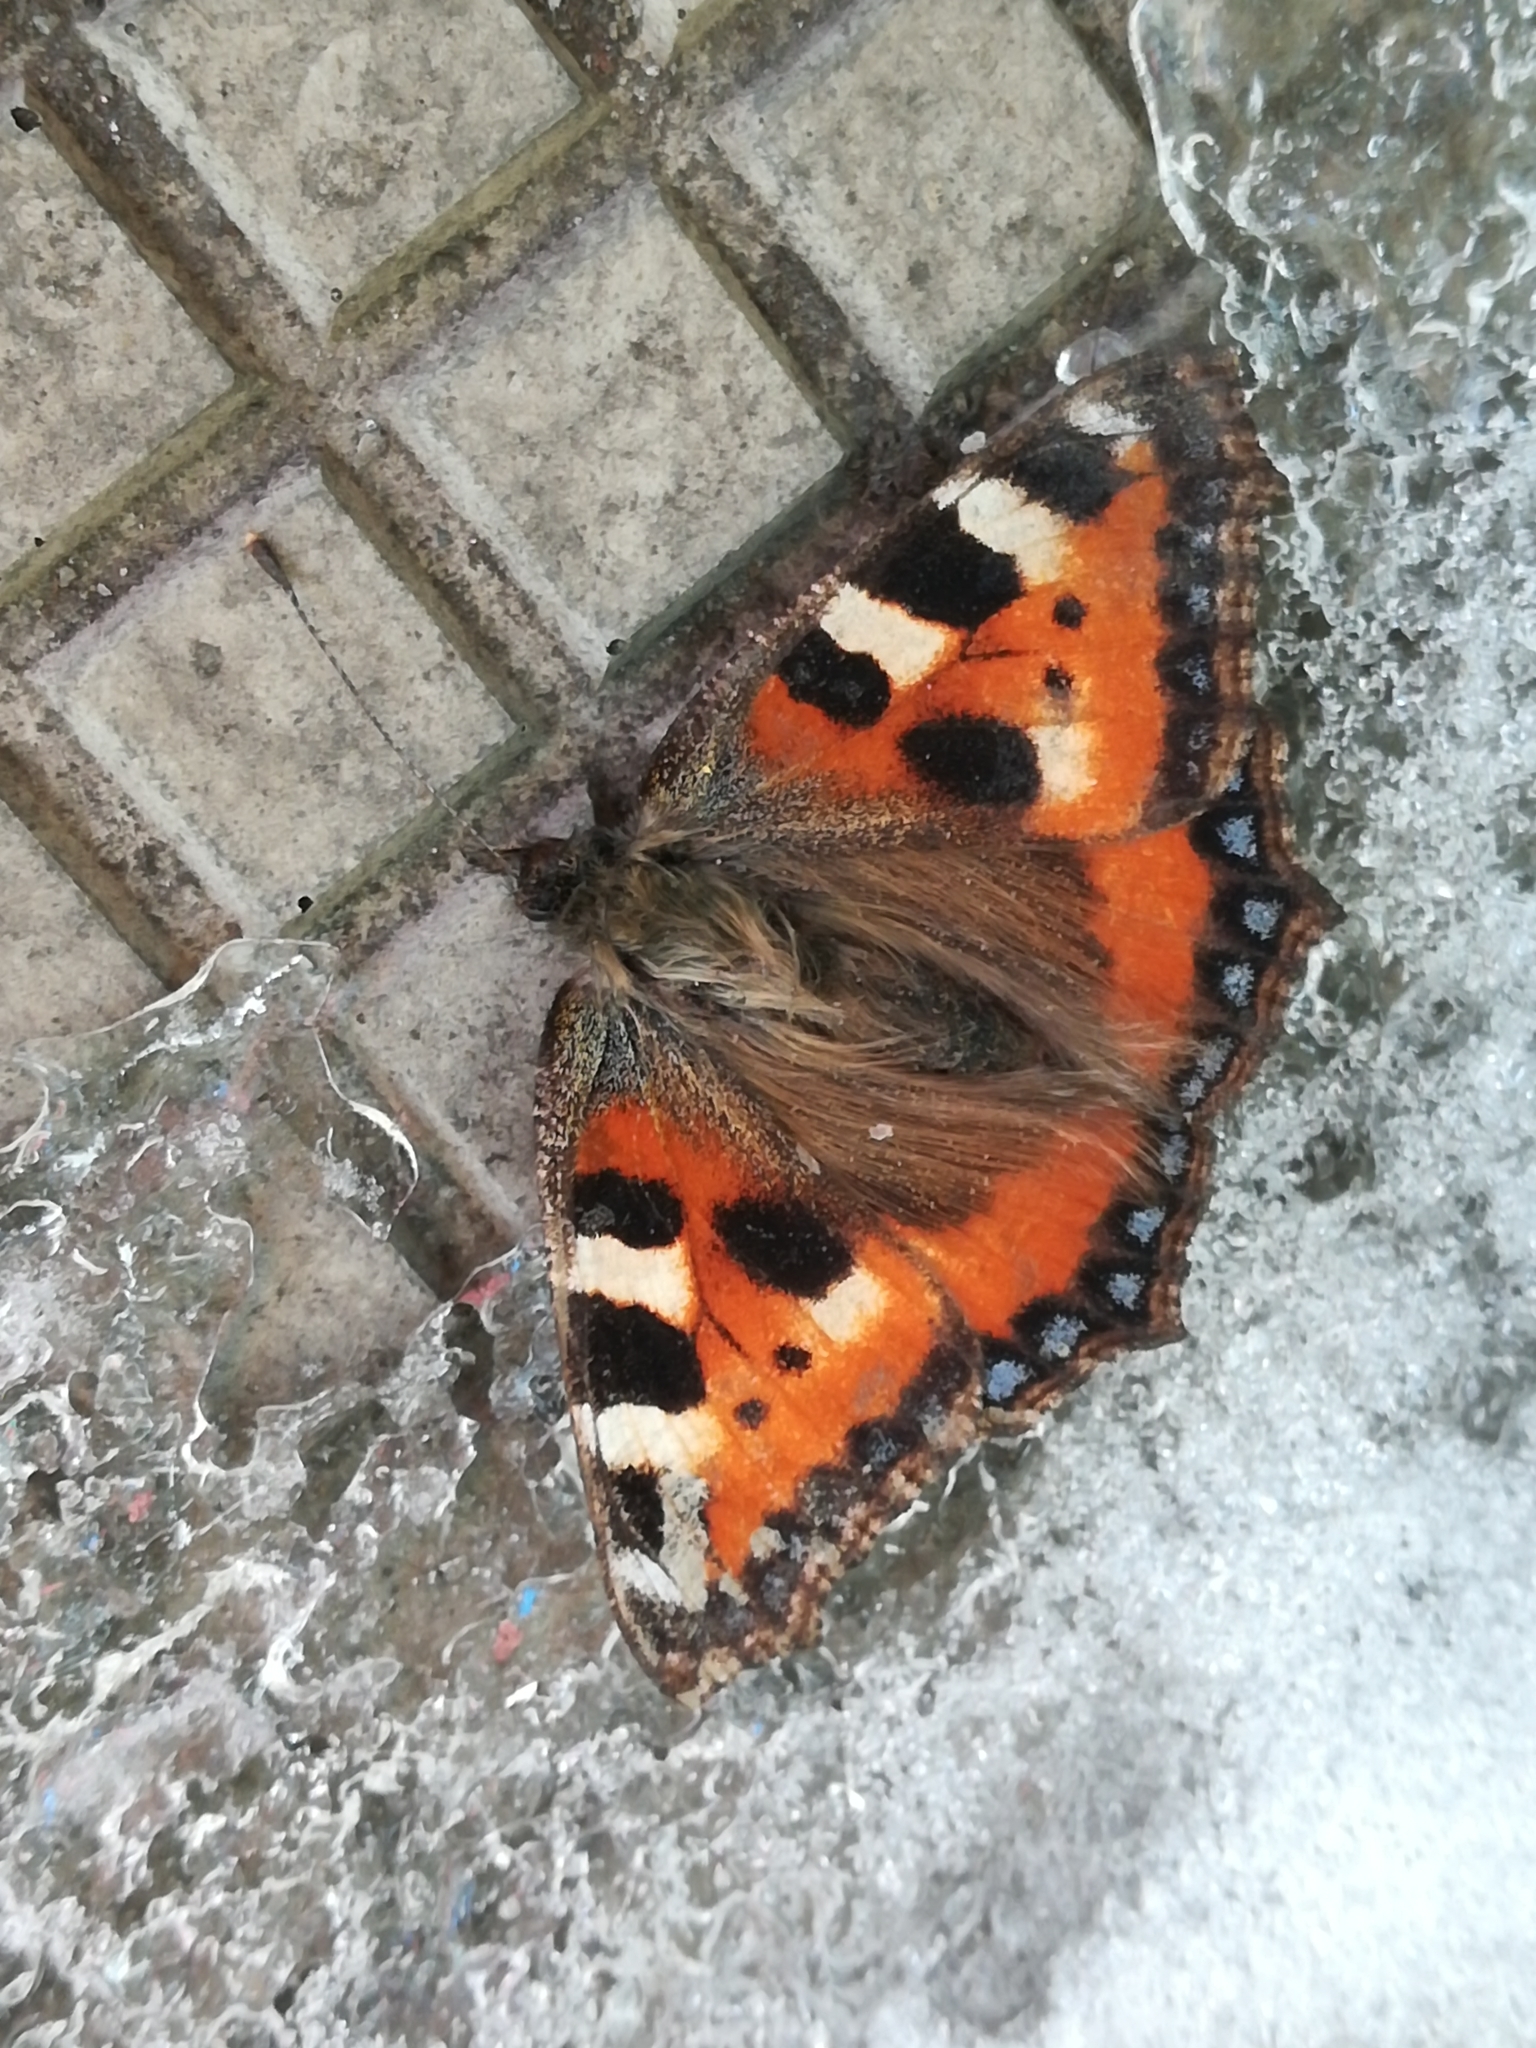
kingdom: Animalia
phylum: Arthropoda
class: Insecta
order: Lepidoptera
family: Nymphalidae
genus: Aglais
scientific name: Aglais urticae
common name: Small tortoiseshell
